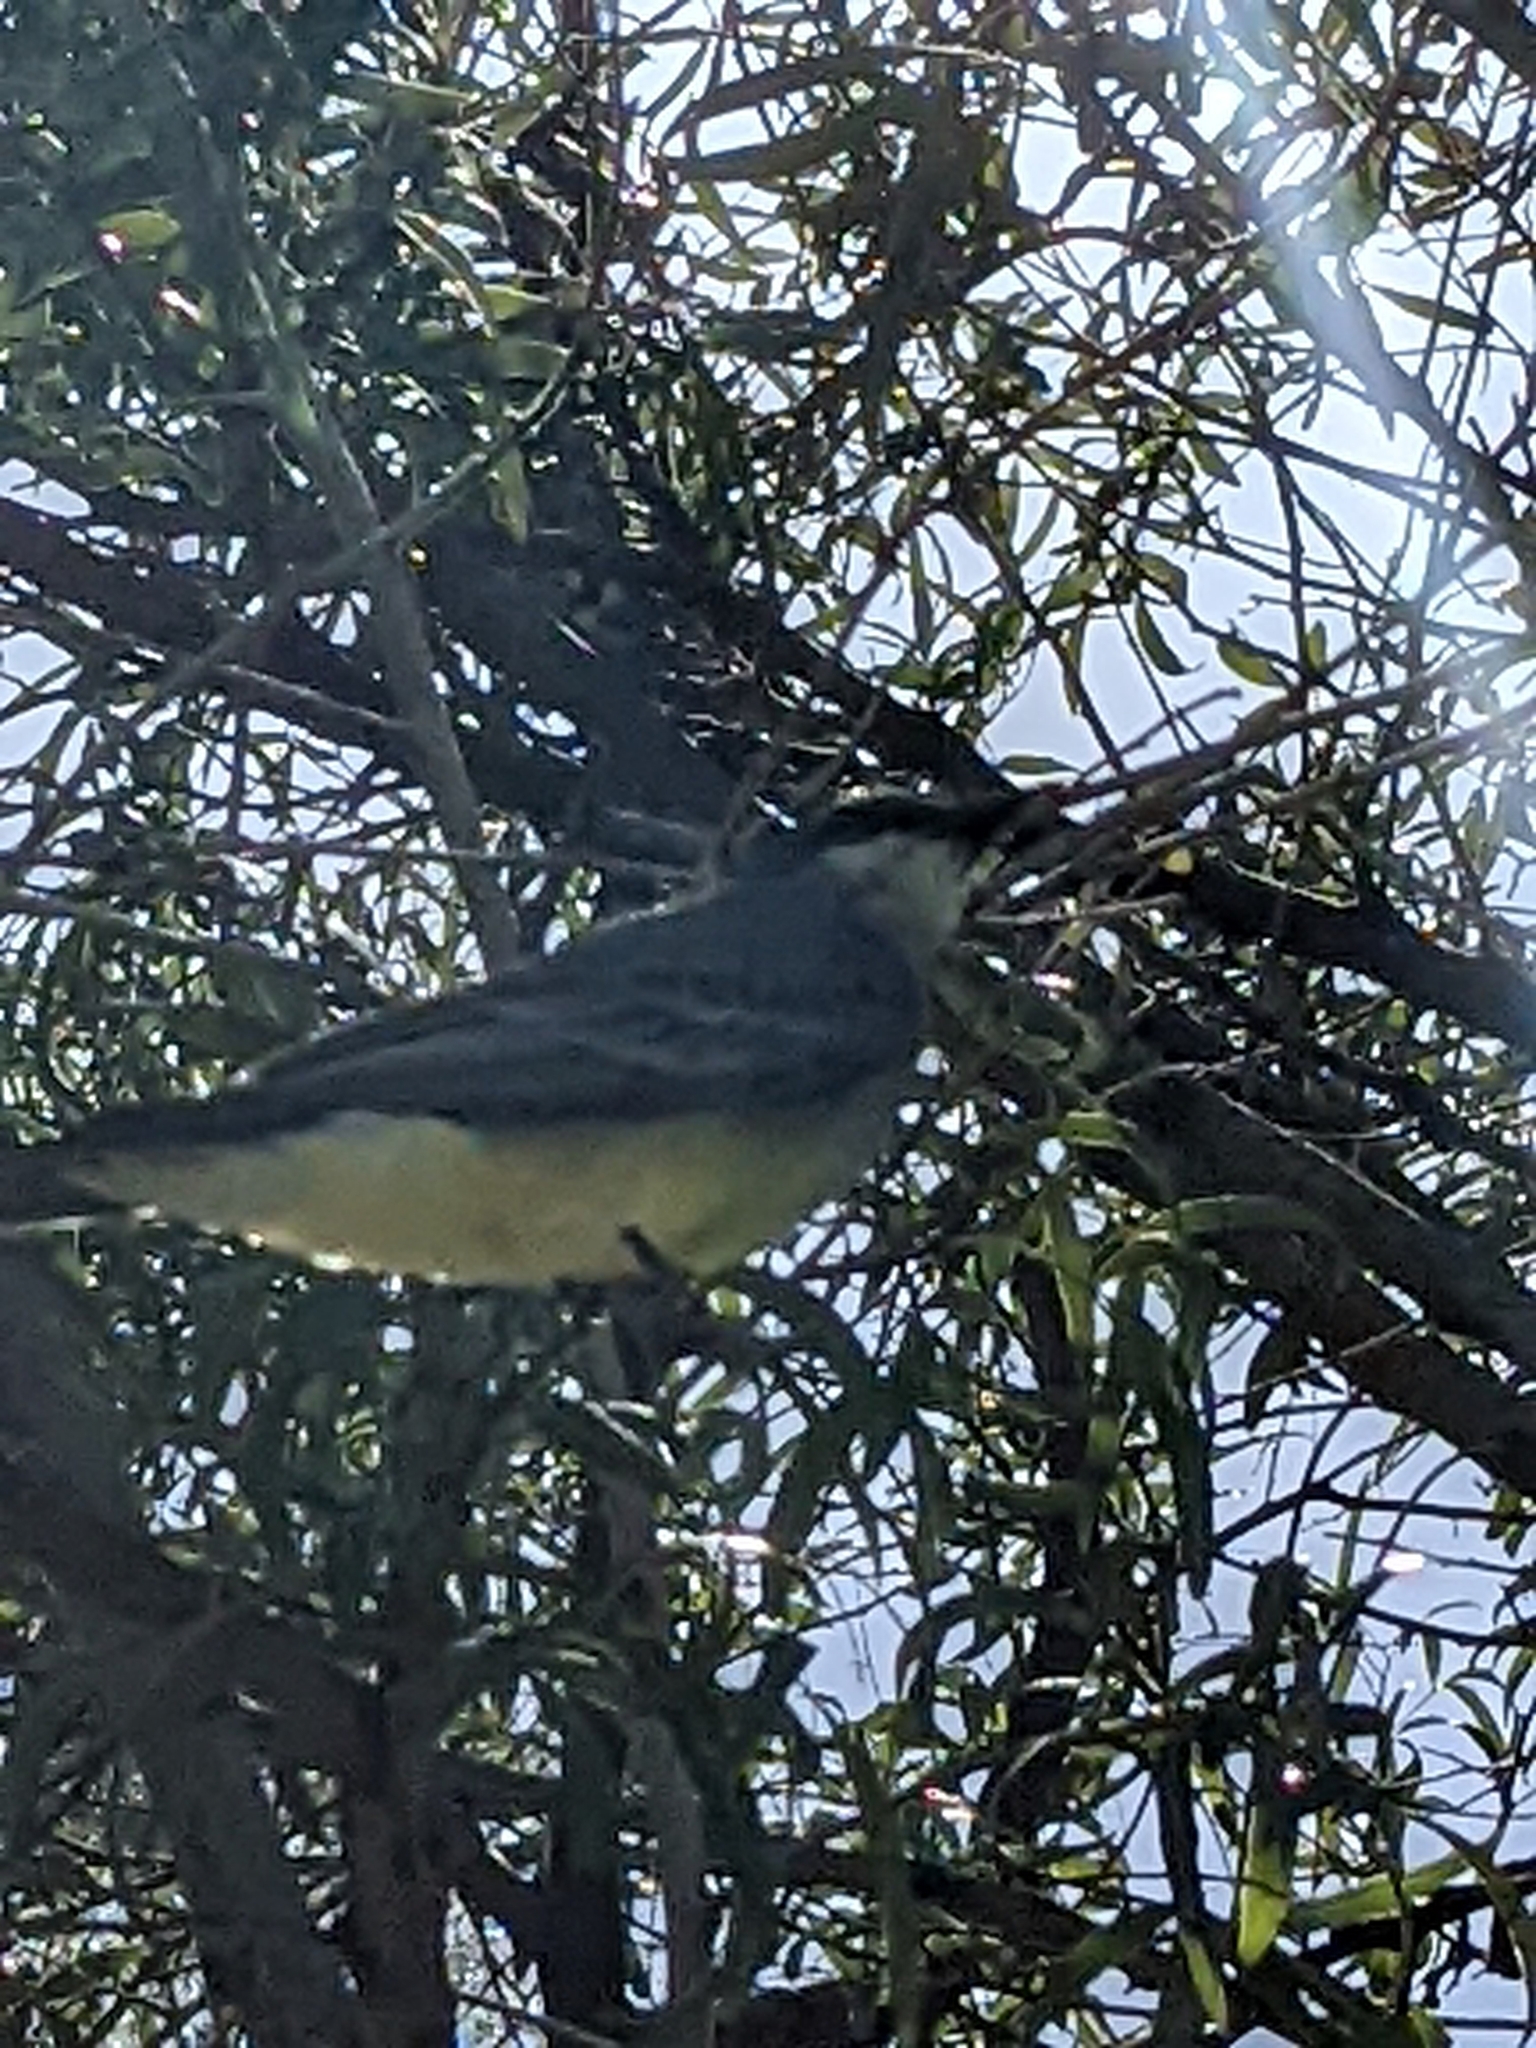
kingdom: Animalia
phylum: Chordata
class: Aves
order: Passeriformes
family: Tyrannidae
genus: Tyrannus
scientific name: Tyrannus vociferans
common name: Cassin's kingbird
